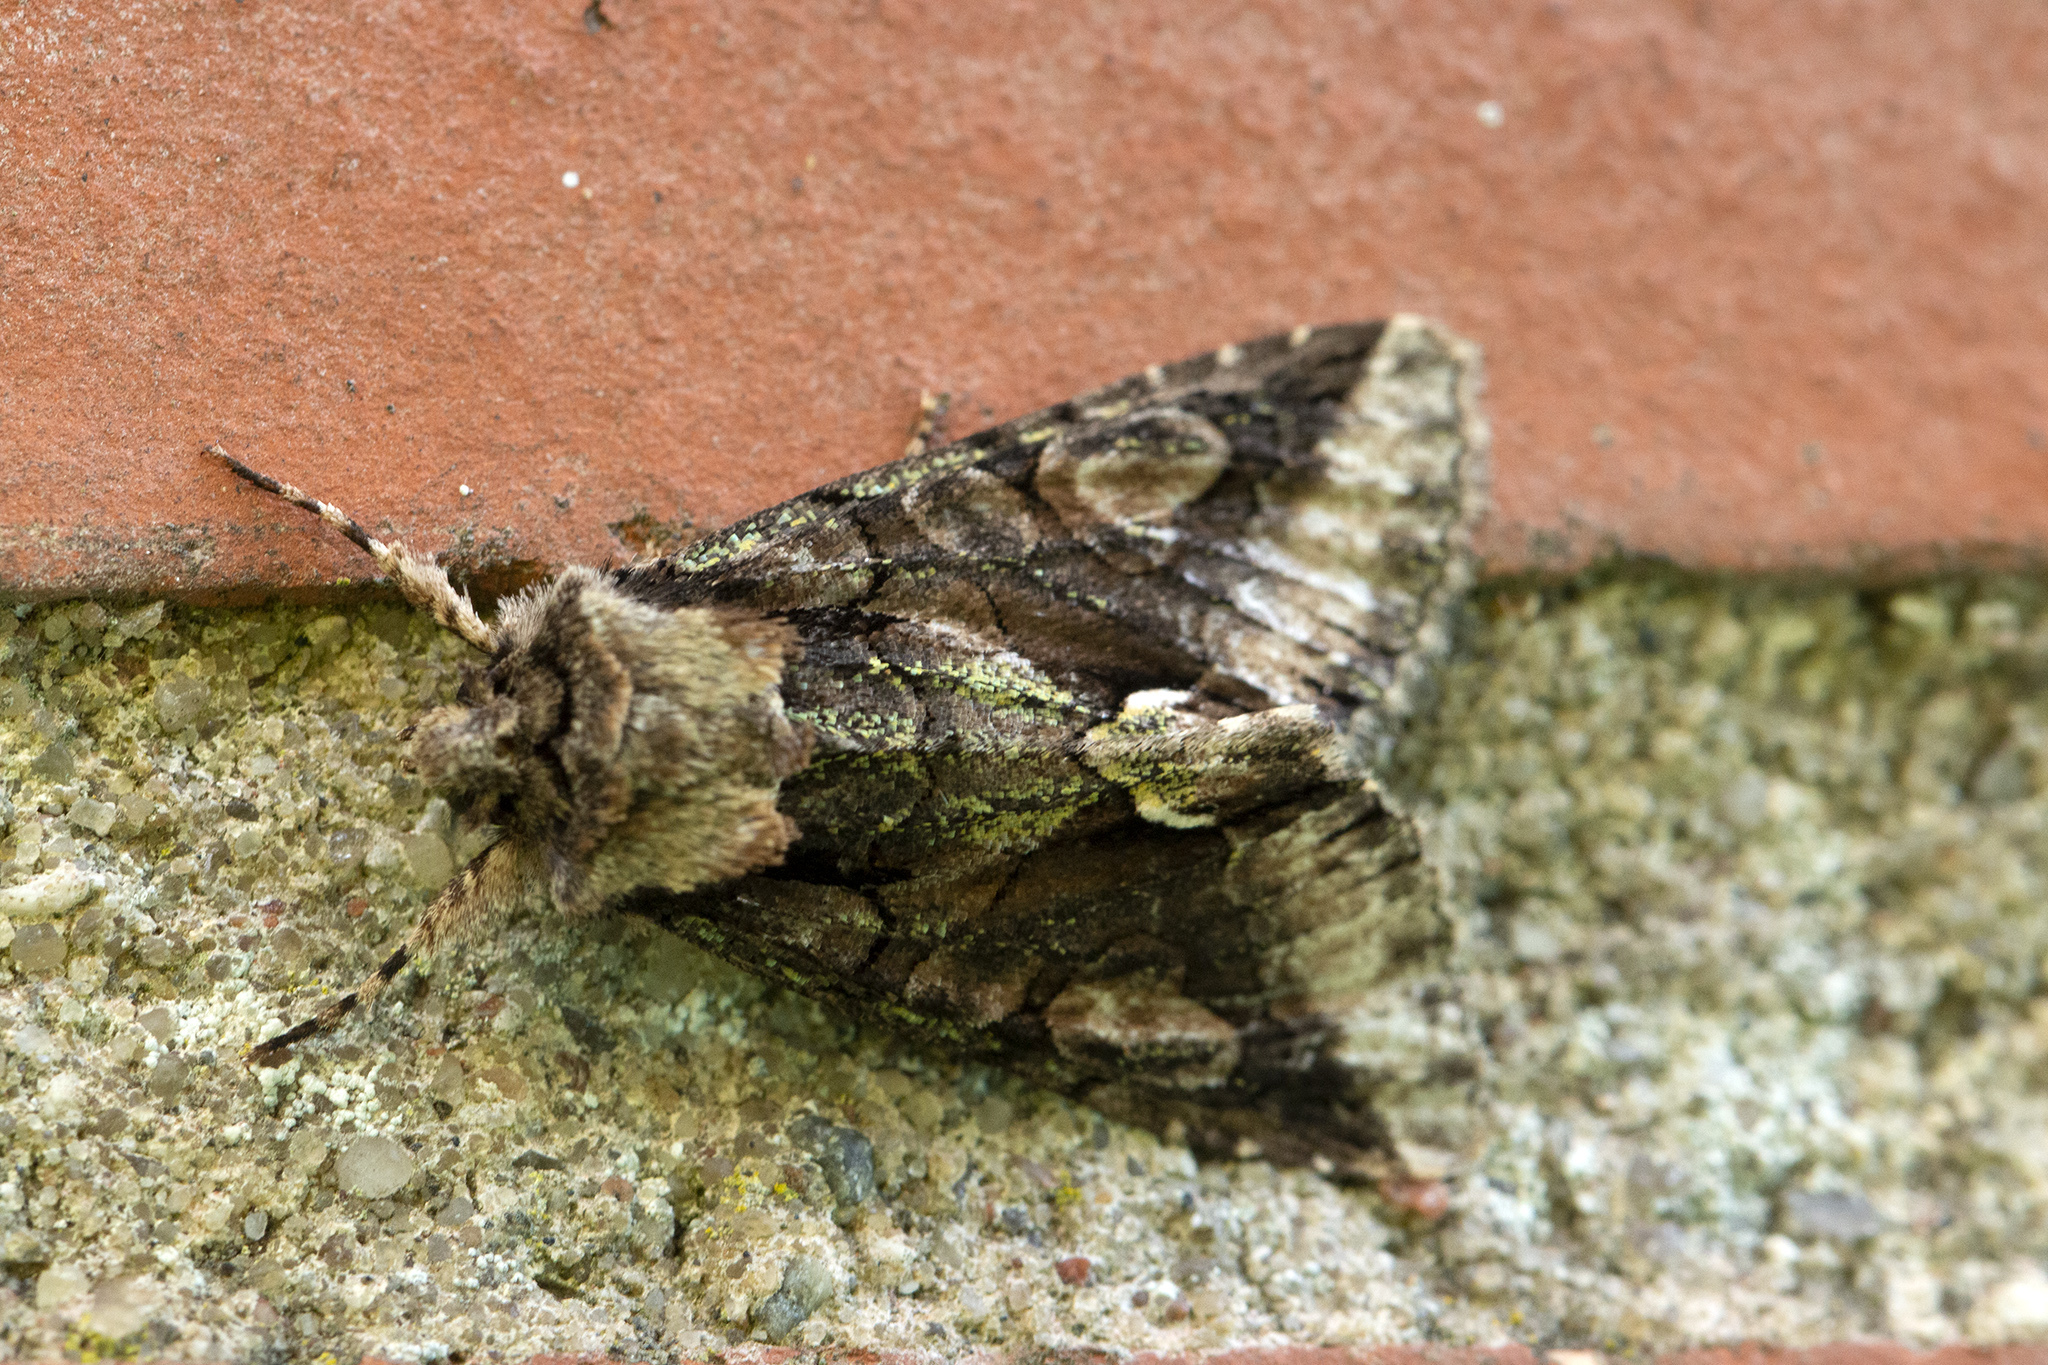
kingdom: Animalia
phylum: Arthropoda
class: Insecta
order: Lepidoptera
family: Noctuidae
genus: Allophyes
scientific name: Allophyes oxyacanthae
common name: Green-brindled crescent
